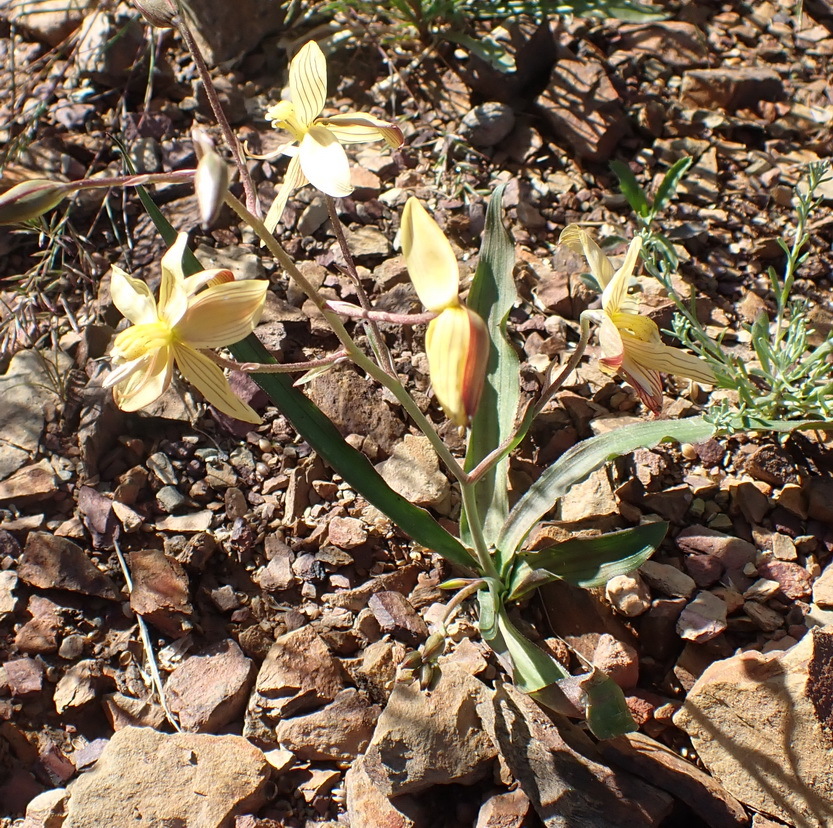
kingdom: Plantae
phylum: Tracheophyta
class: Liliopsida
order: Asparagales
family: Tecophilaeaceae
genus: Cyanella
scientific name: Cyanella lutea
